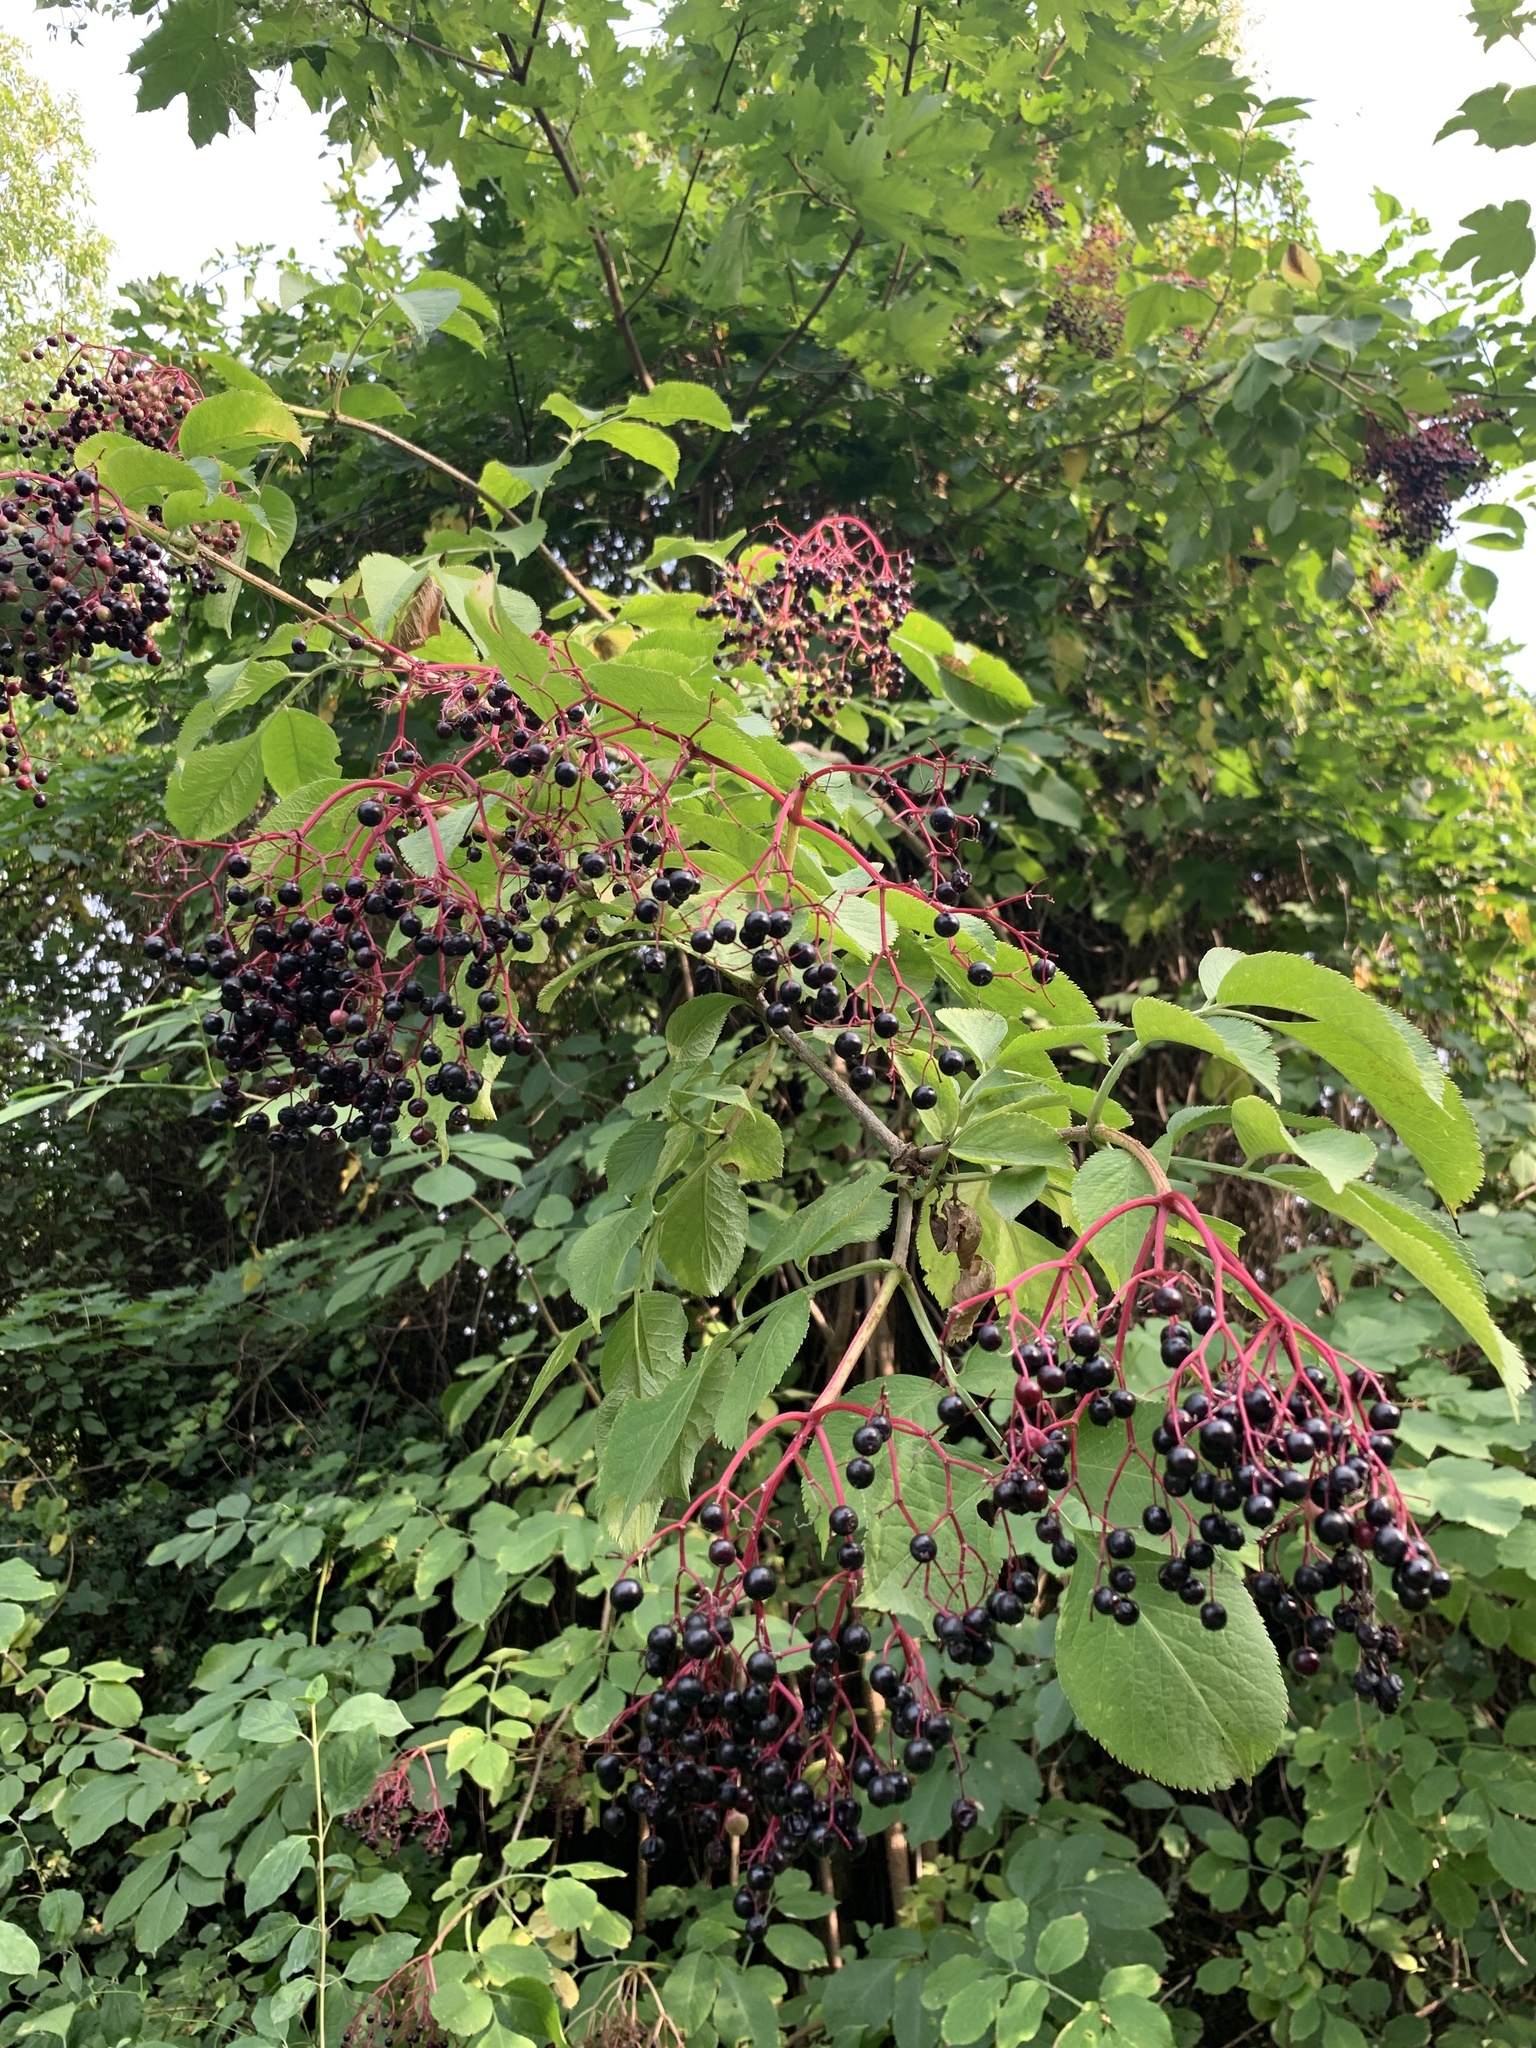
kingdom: Plantae
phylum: Tracheophyta
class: Magnoliopsida
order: Dipsacales
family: Viburnaceae
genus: Sambucus
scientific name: Sambucus nigra
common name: Elder
